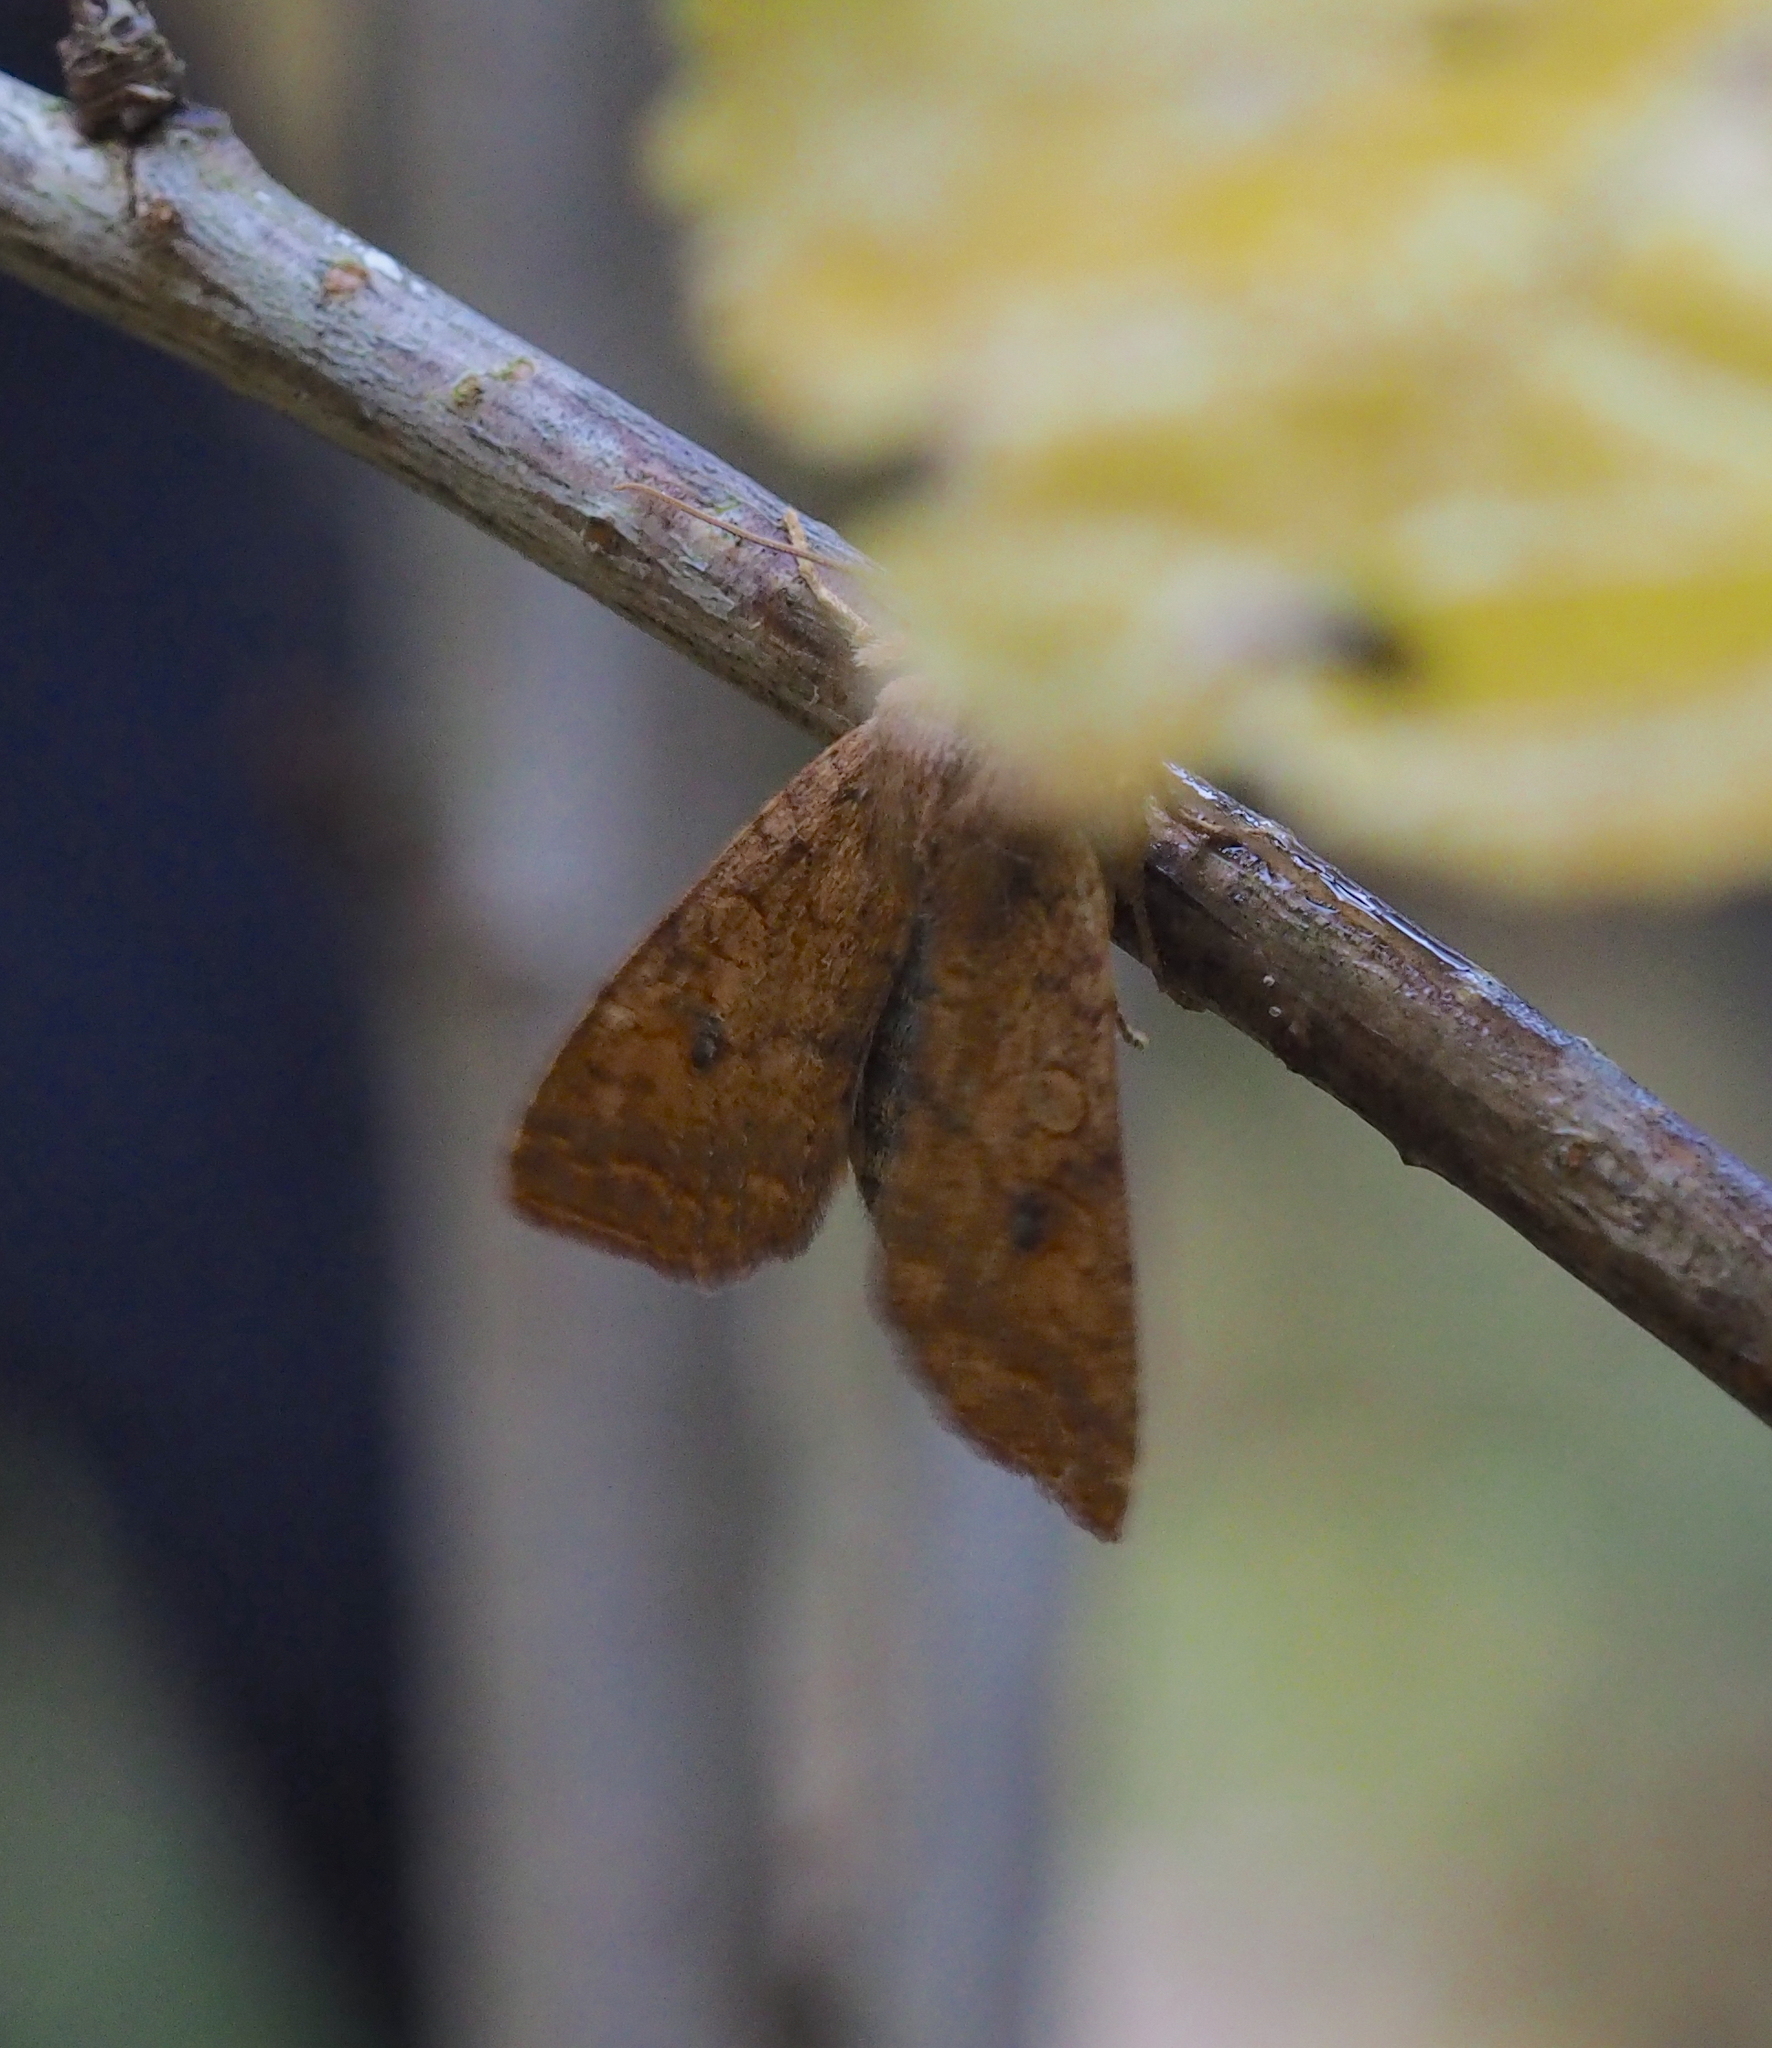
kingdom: Animalia
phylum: Arthropoda
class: Insecta
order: Lepidoptera
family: Noctuidae
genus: Sunira
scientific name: Sunira circellaris
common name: Brick
